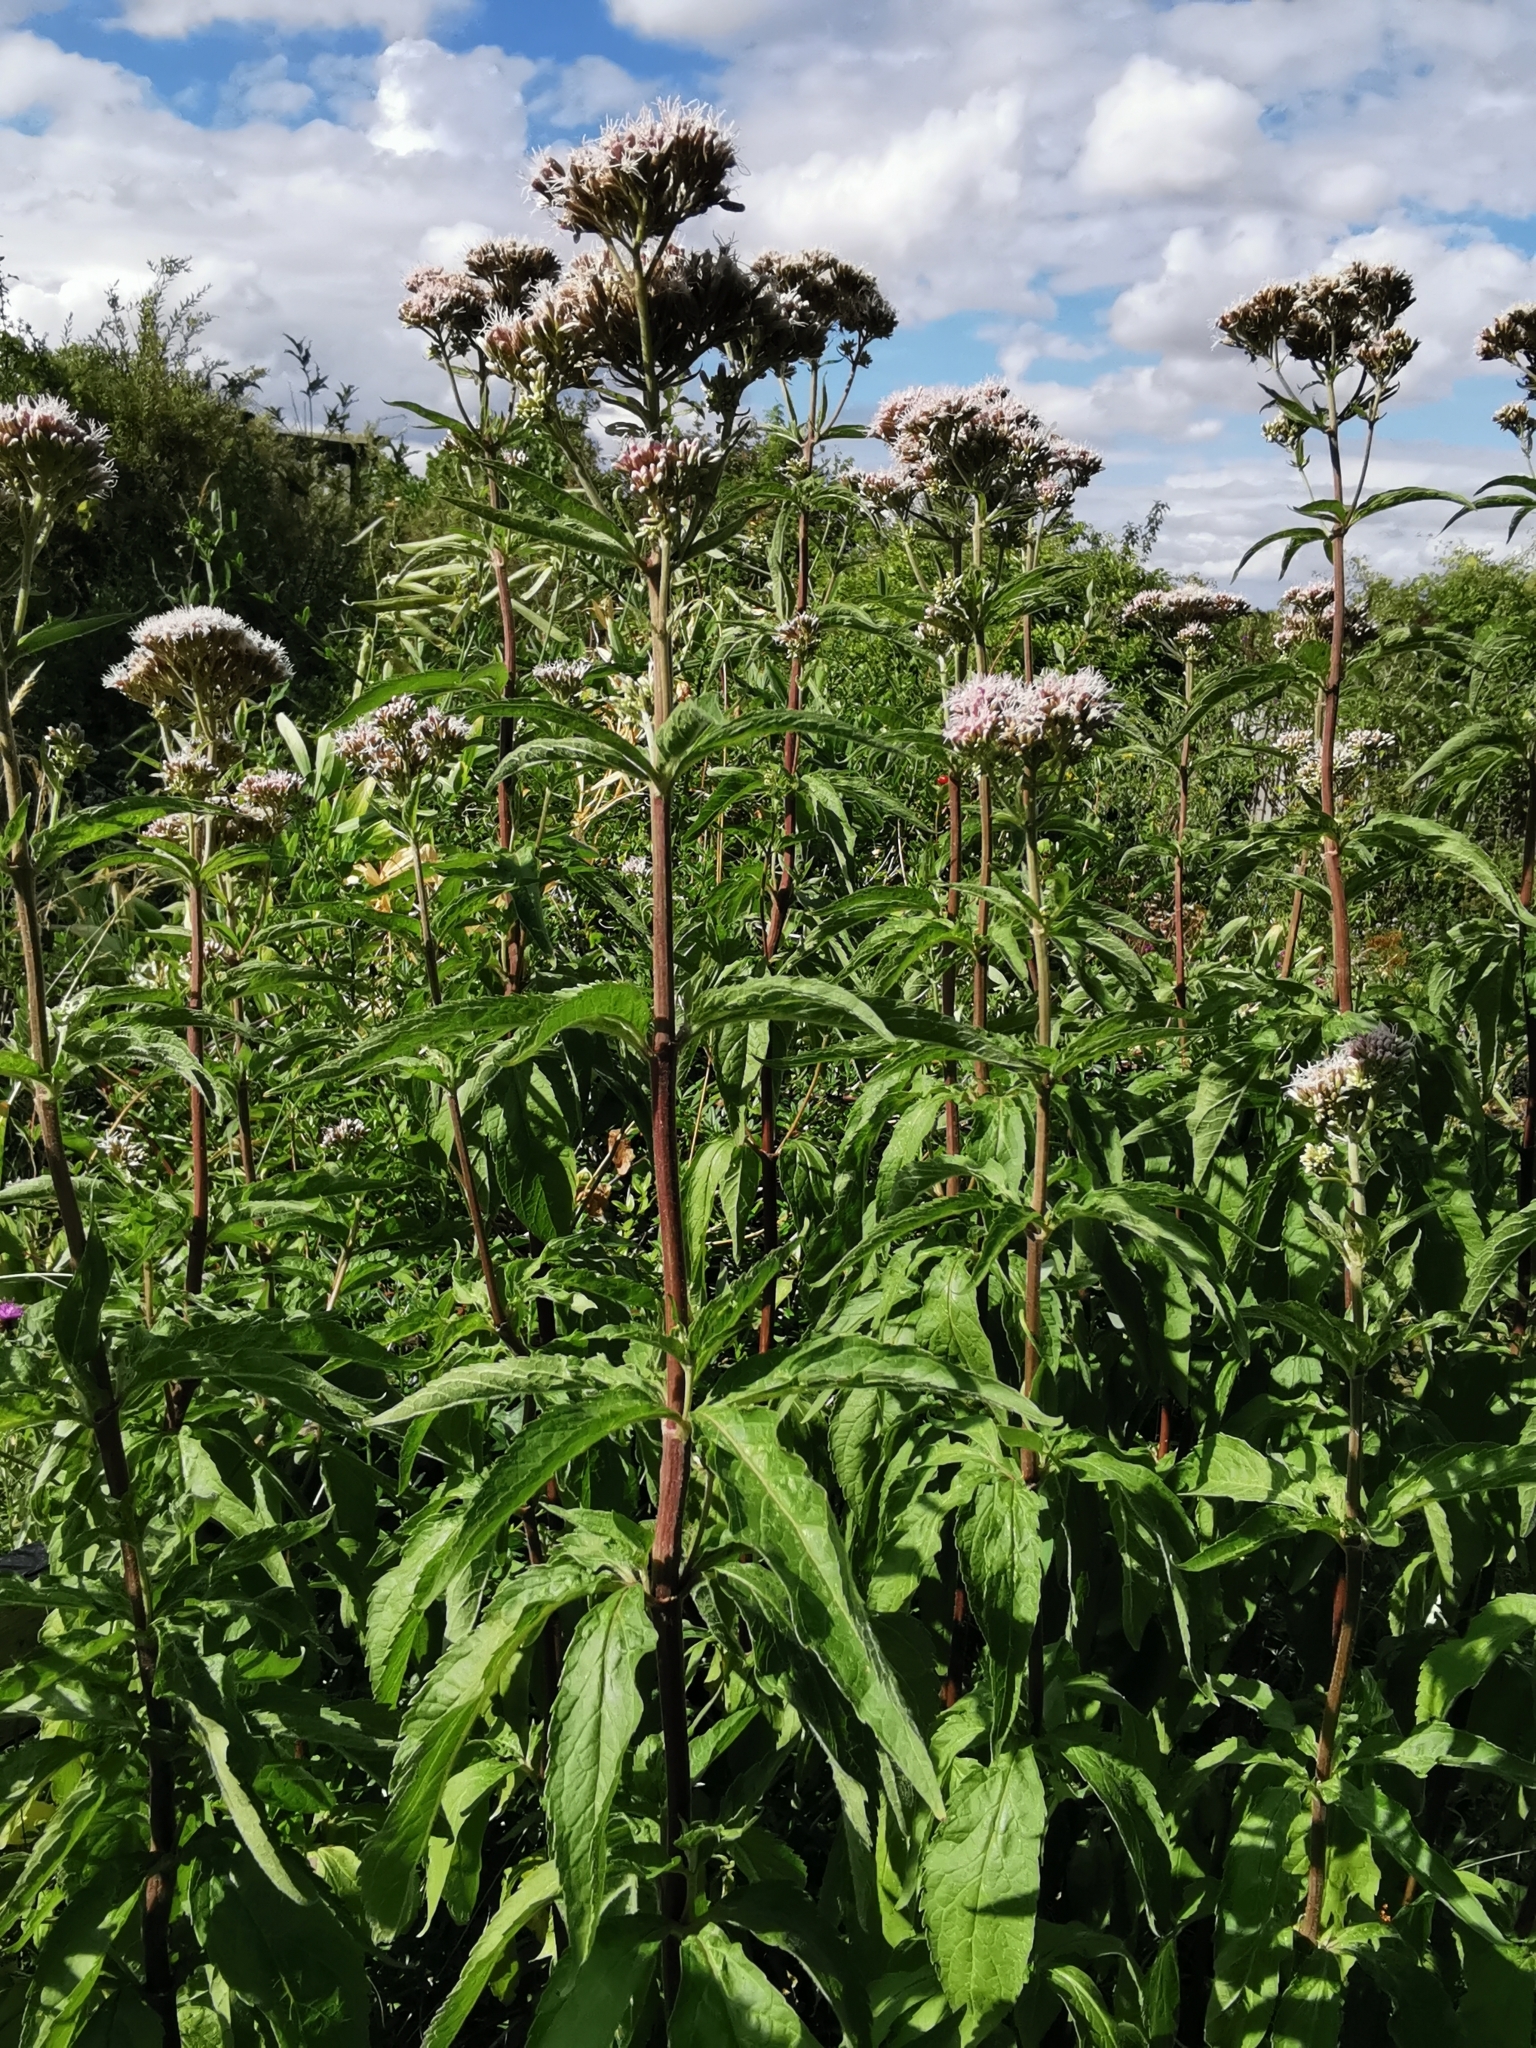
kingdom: Plantae
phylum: Tracheophyta
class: Magnoliopsida
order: Asterales
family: Asteraceae
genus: Eupatorium
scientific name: Eupatorium cannabinum
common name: Hemp-agrimony
